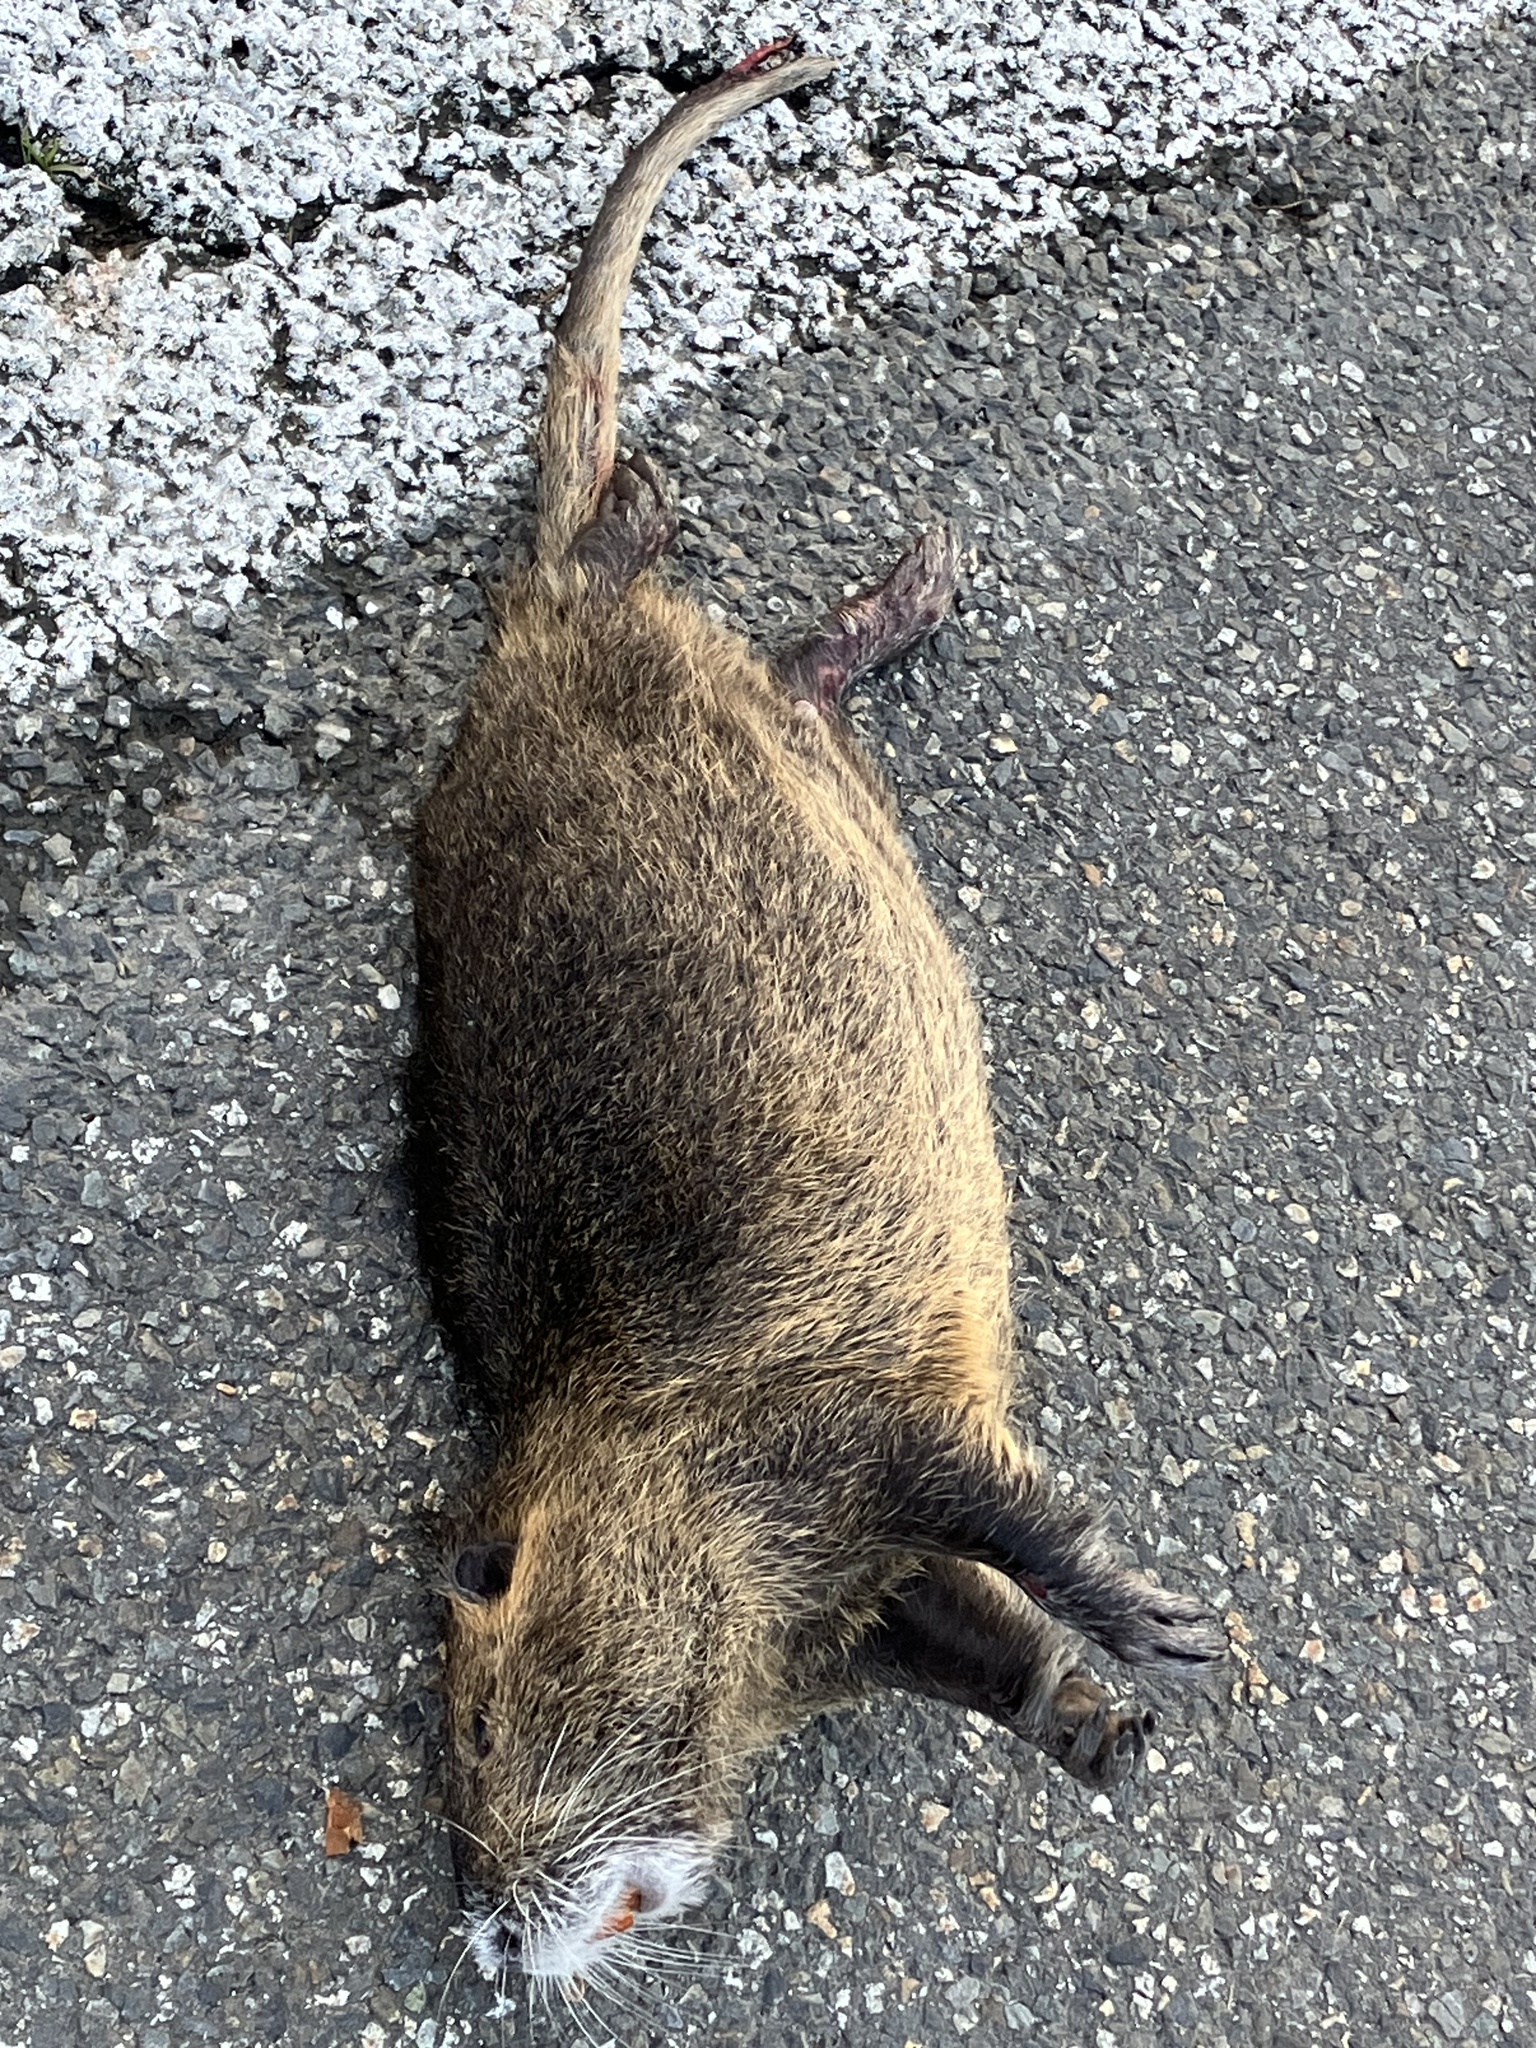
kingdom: Animalia
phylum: Chordata
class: Mammalia
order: Rodentia
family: Myocastoridae
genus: Myocastor
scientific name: Myocastor coypus
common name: Coypu
